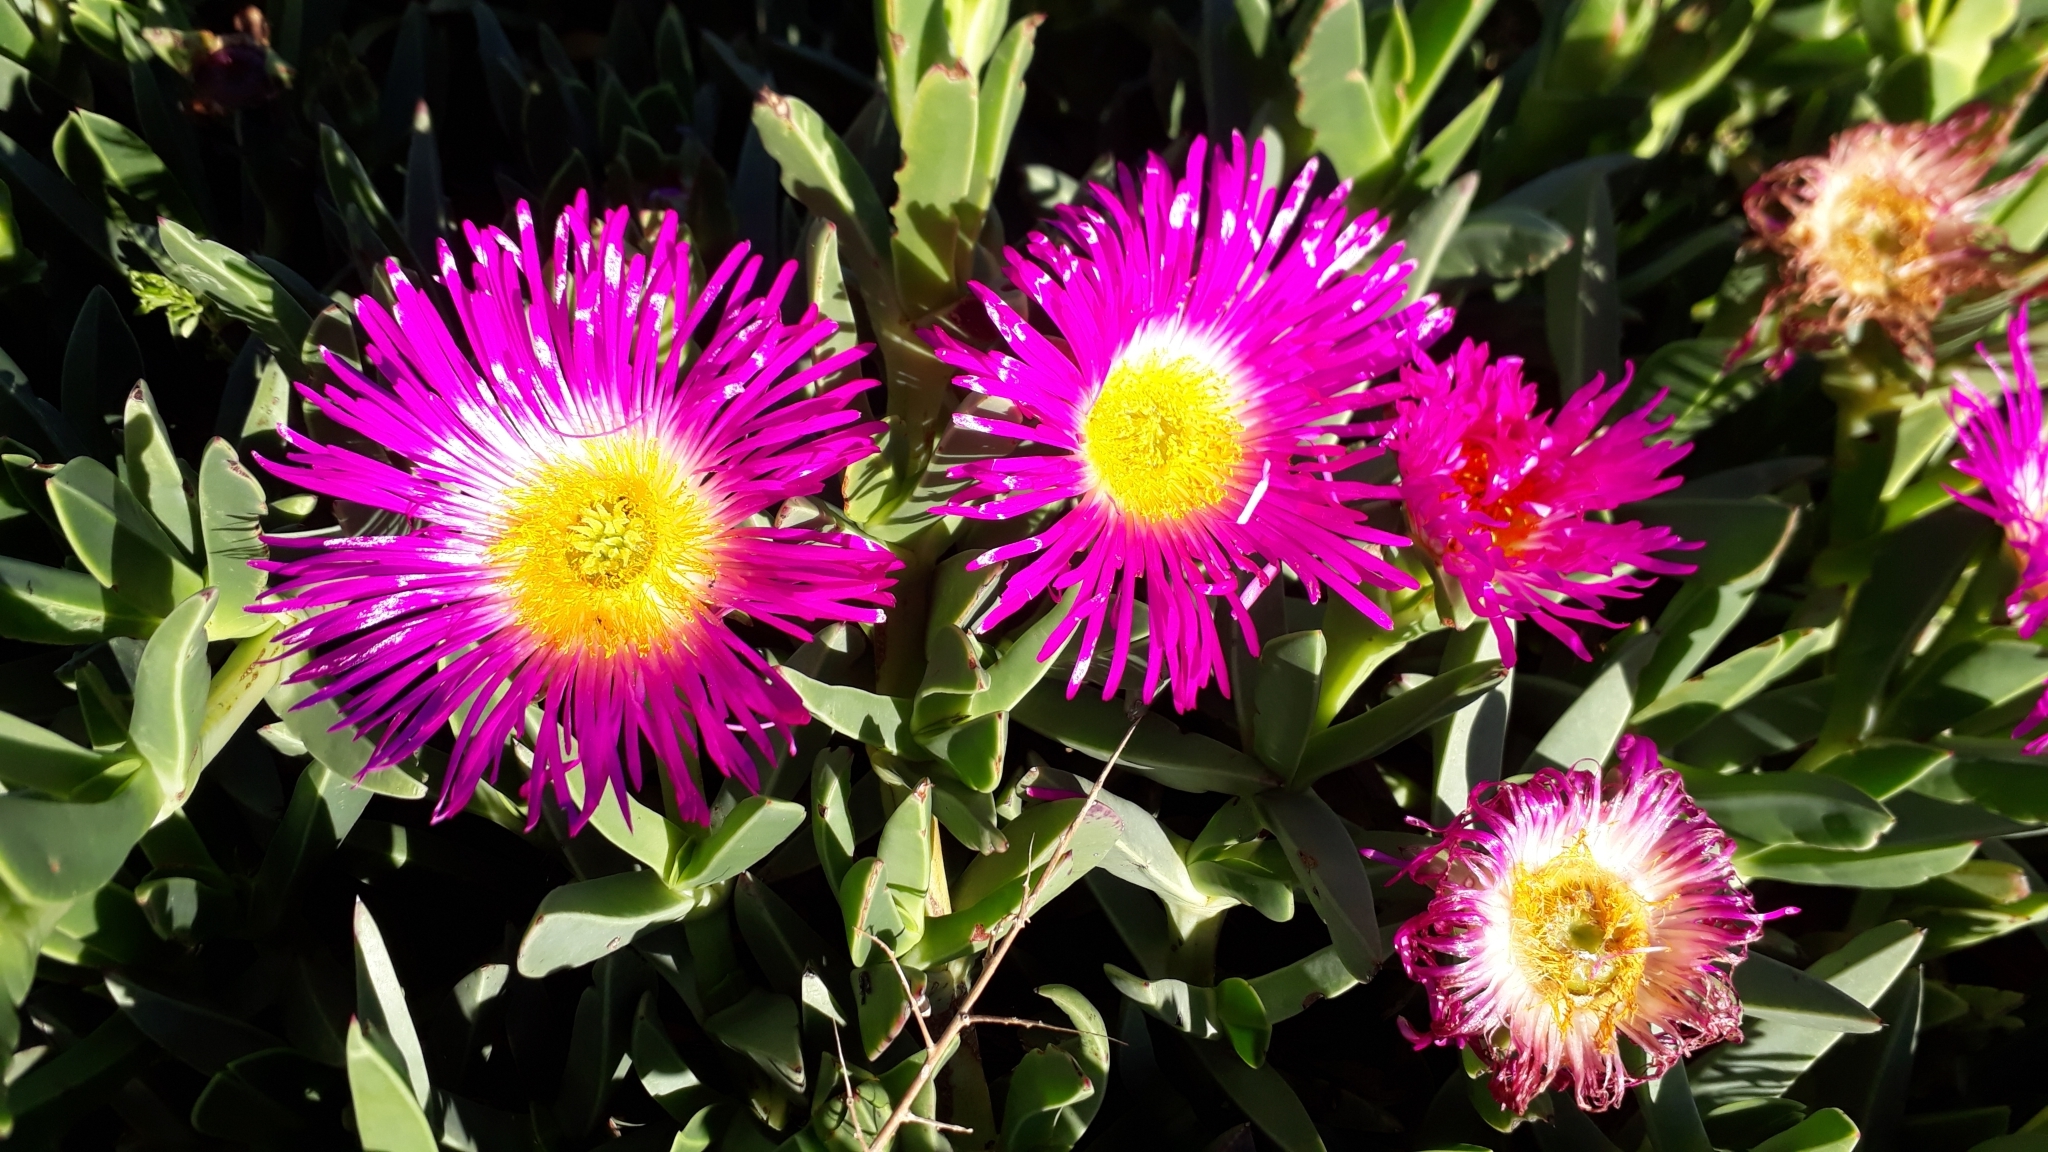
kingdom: Plantae
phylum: Tracheophyta
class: Magnoliopsida
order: Caryophyllales
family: Aizoaceae
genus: Carpobrotus
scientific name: Carpobrotus quadrifidus
